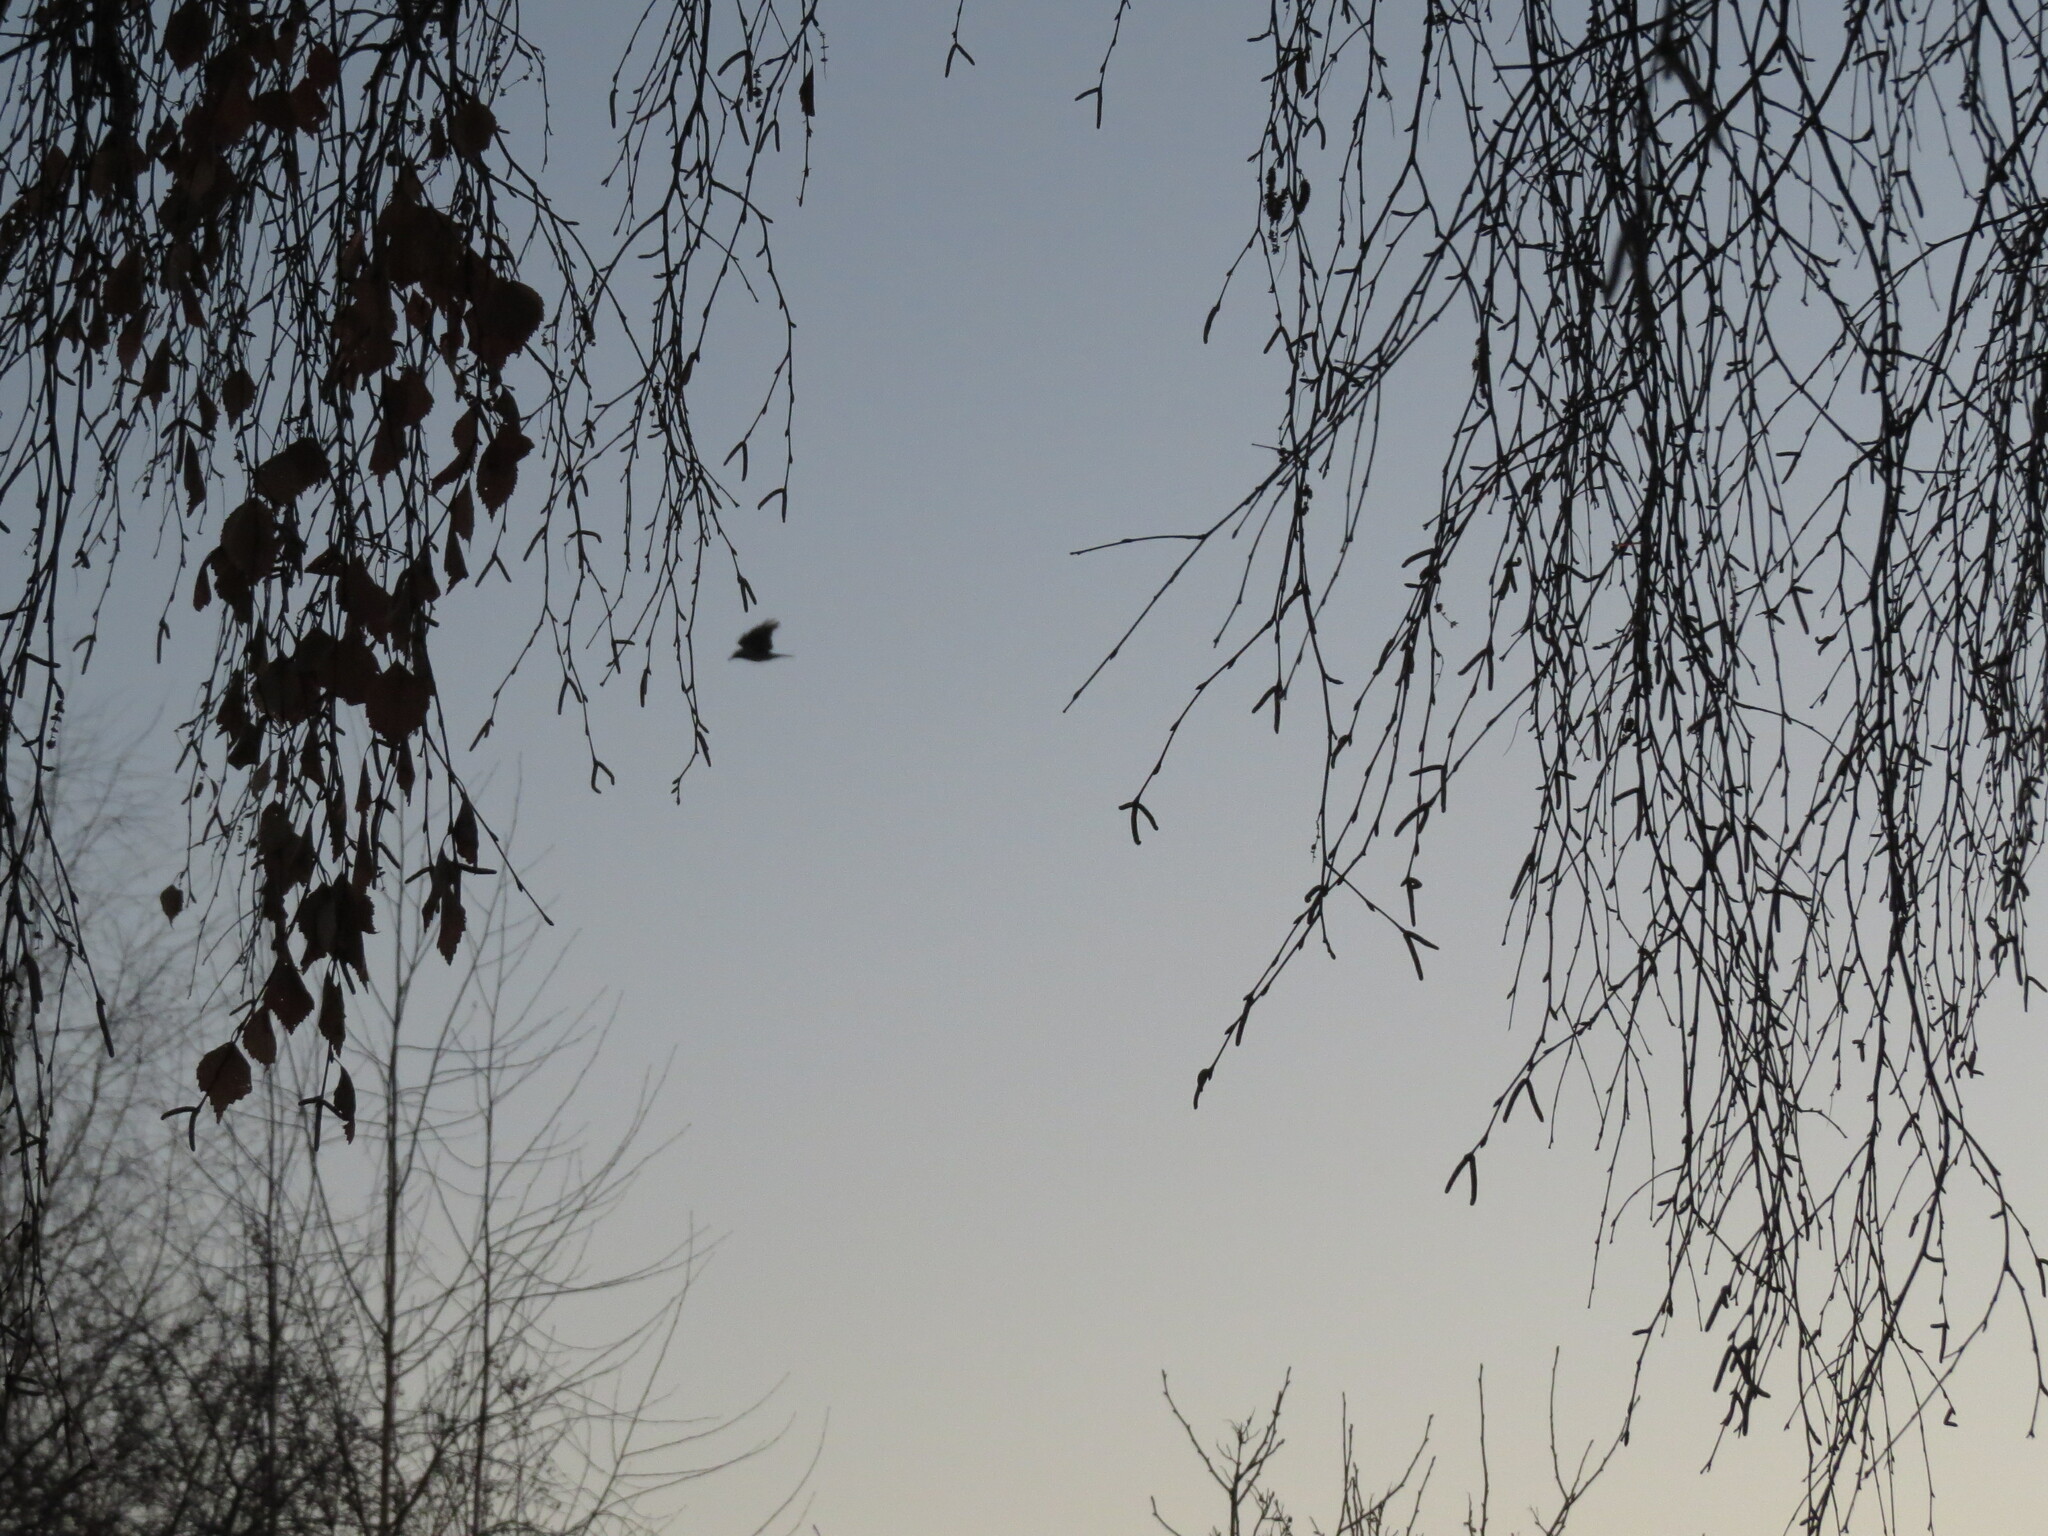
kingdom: Animalia
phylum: Chordata
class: Aves
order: Passeriformes
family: Corvidae
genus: Corvus
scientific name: Corvus cornix
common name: Hooded crow
